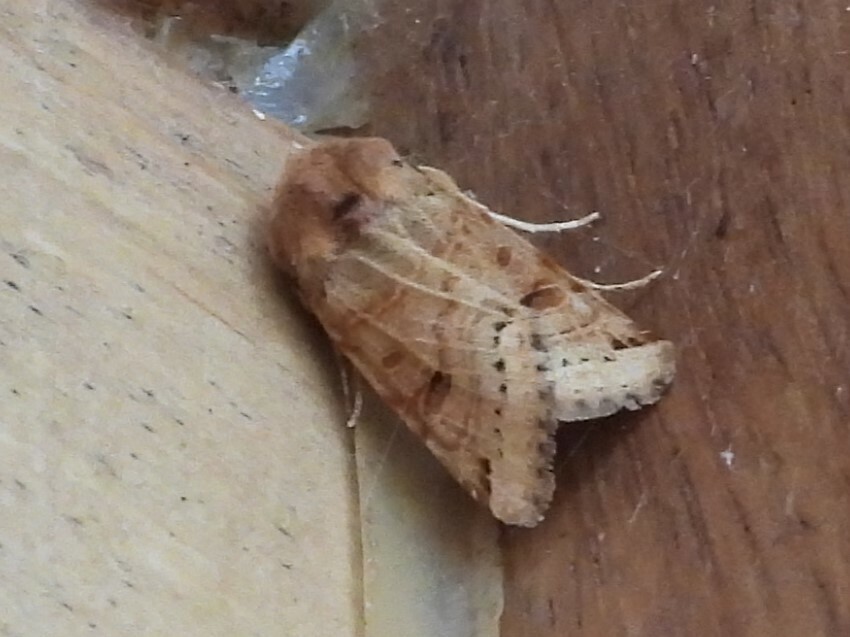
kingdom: Animalia
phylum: Arthropoda
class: Insecta
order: Lepidoptera
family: Noctuidae
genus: Agrochola
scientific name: Agrochola lunosa
